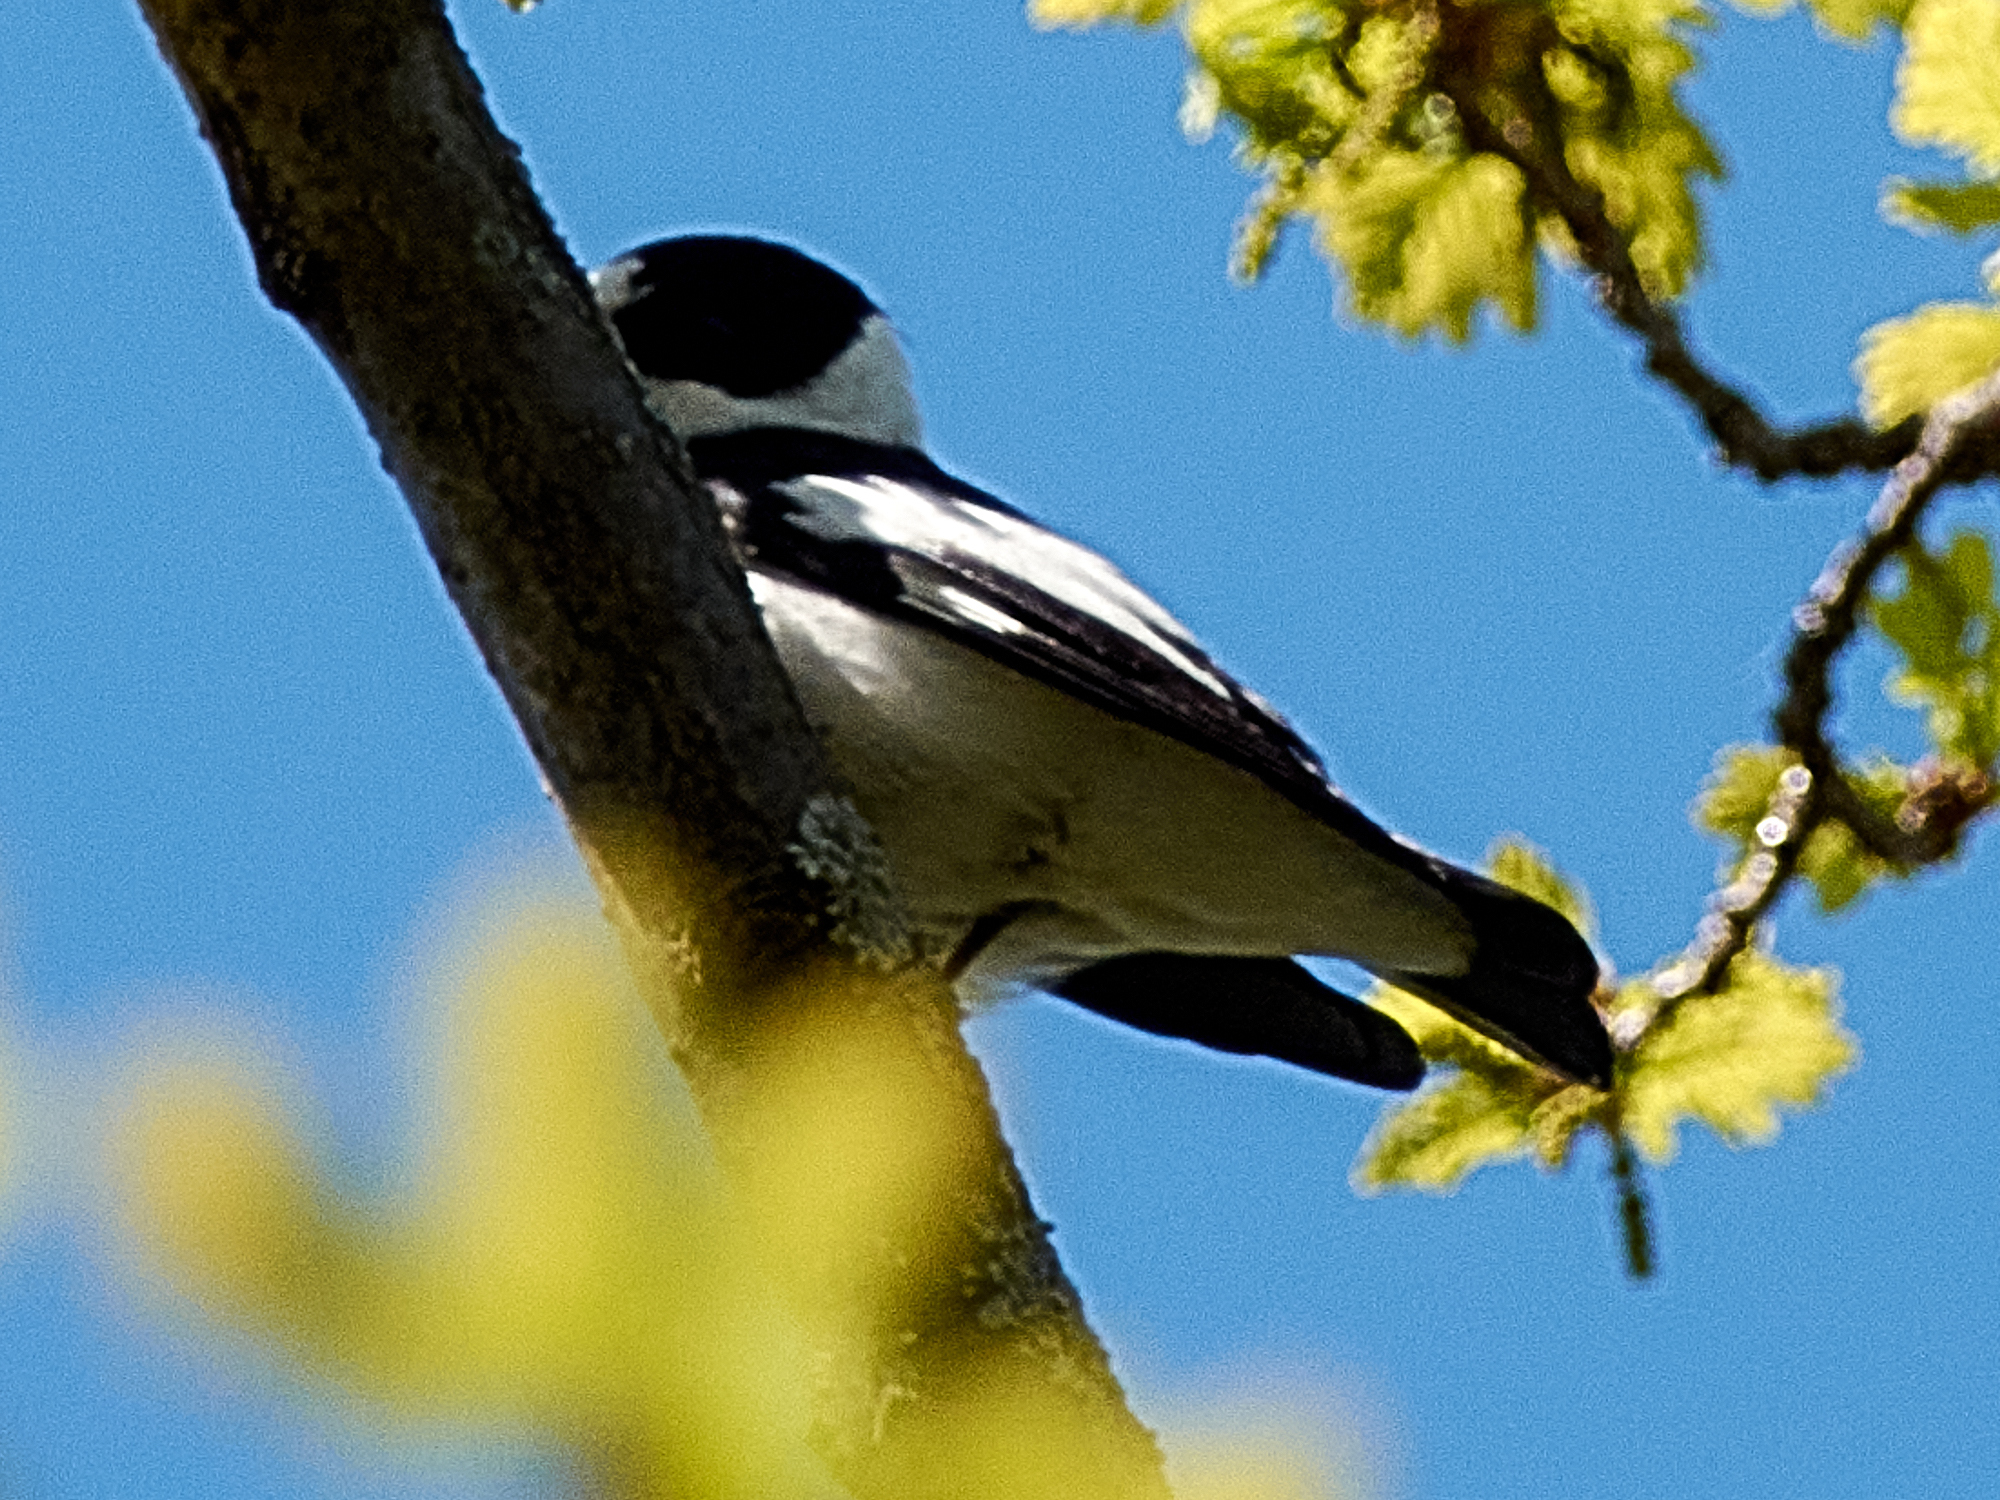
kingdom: Animalia
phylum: Chordata
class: Aves
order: Passeriformes
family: Muscicapidae
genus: Ficedula
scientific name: Ficedula albicollis
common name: Collared flycatcher
